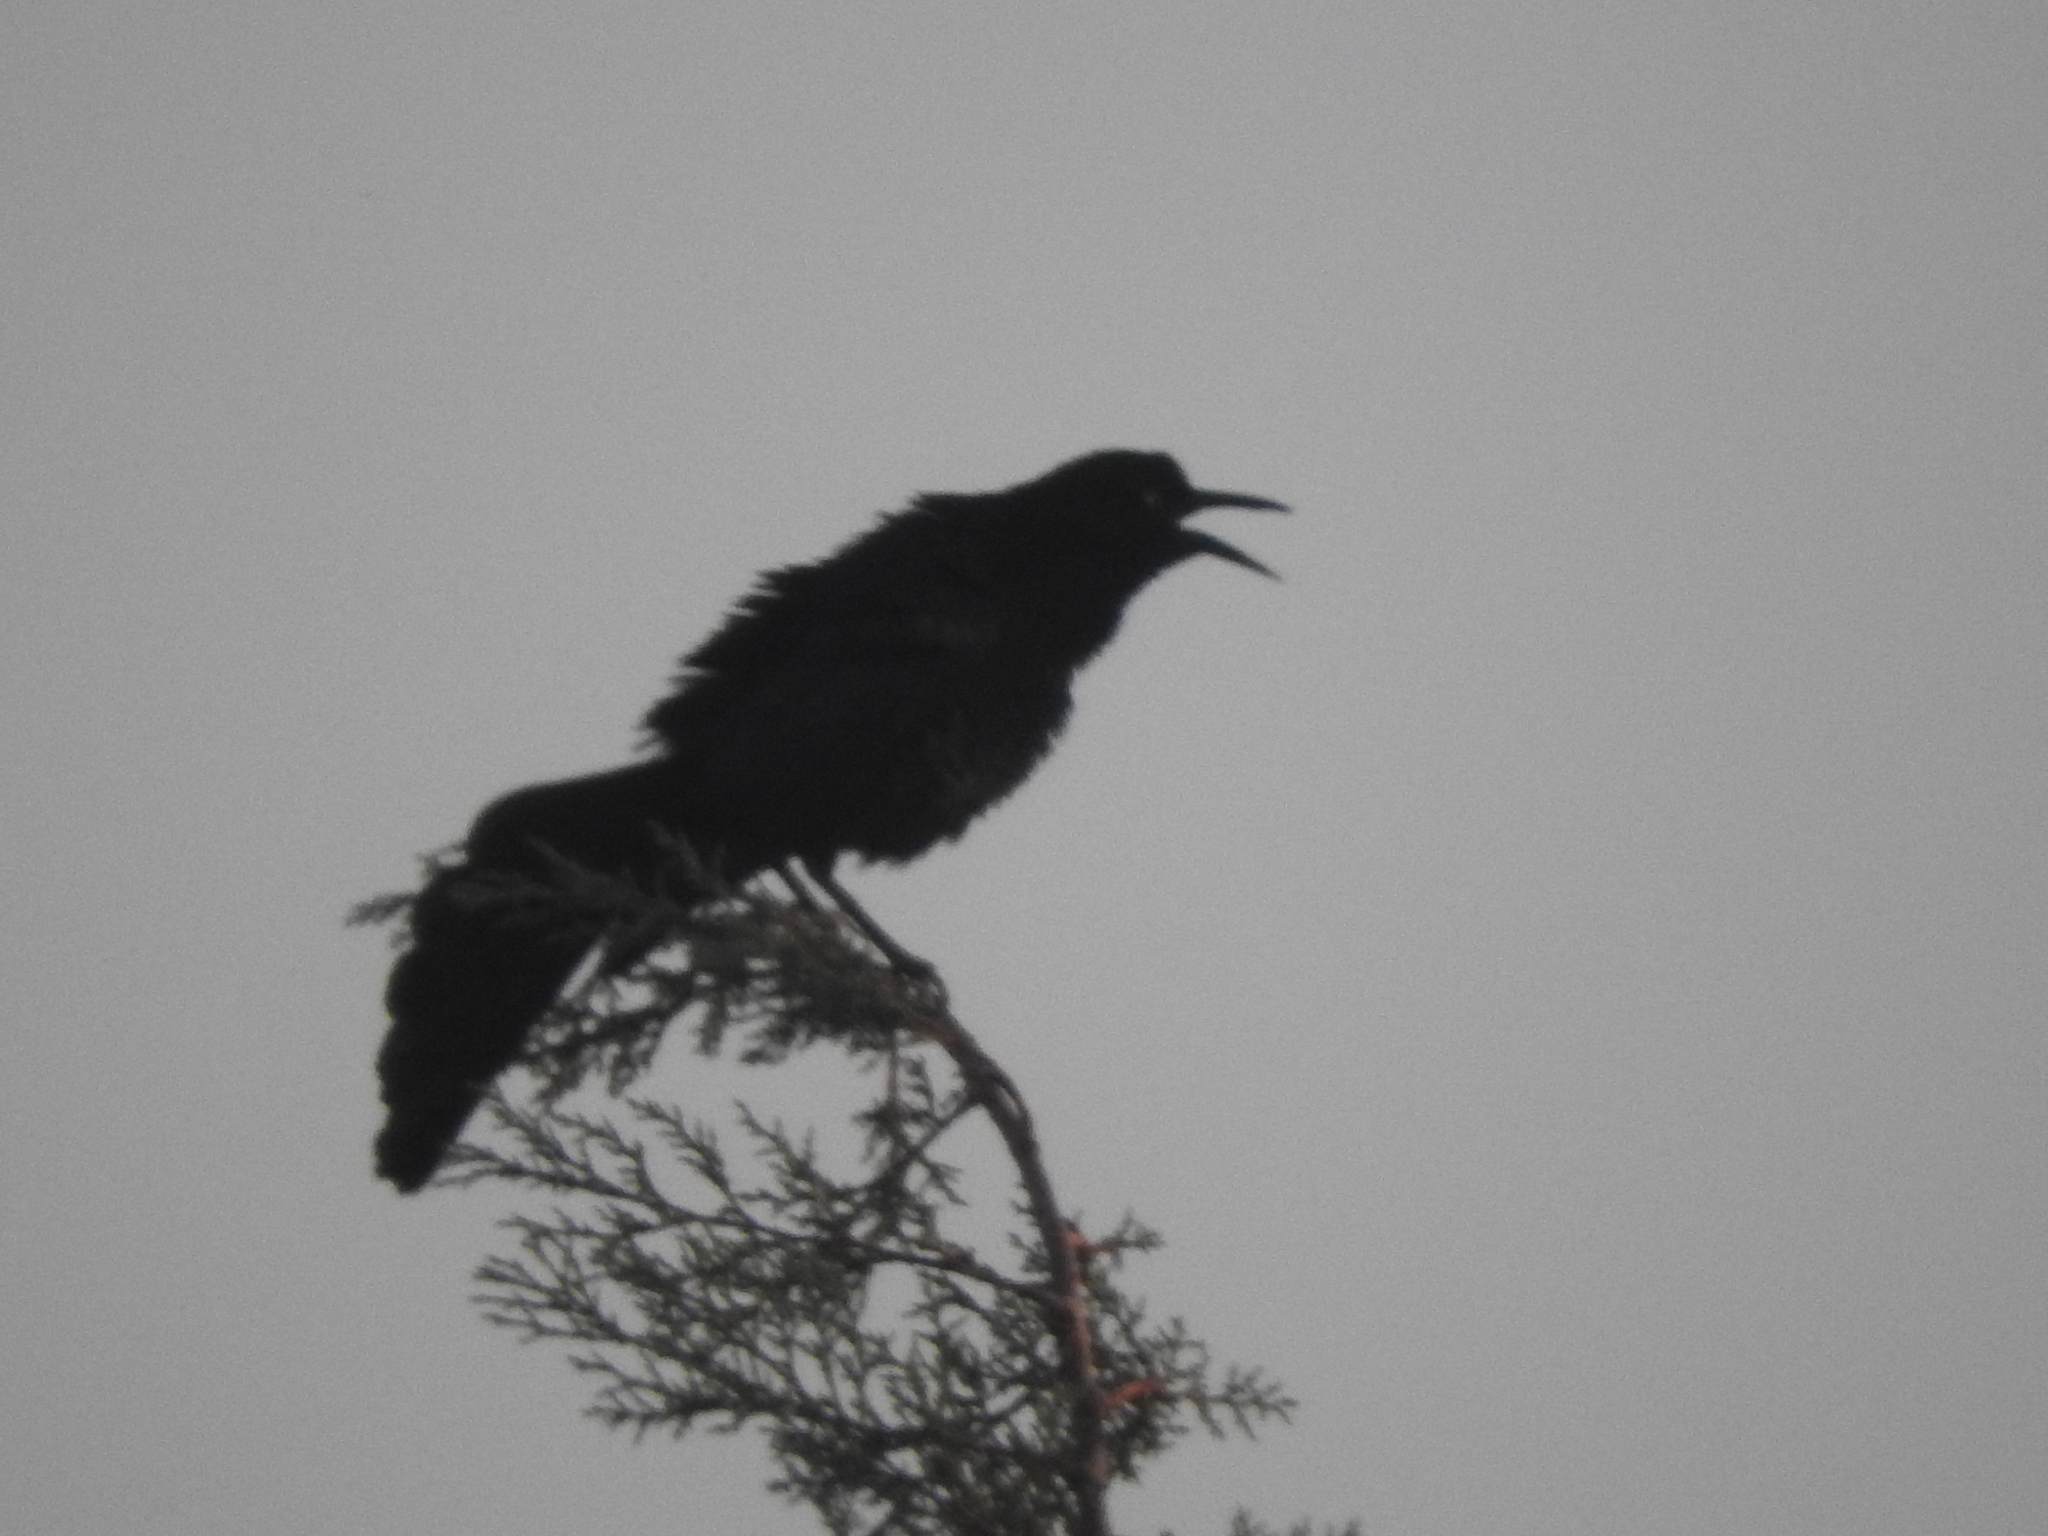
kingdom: Animalia
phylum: Chordata
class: Aves
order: Passeriformes
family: Icteridae
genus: Quiscalus
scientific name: Quiscalus mexicanus
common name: Great-tailed grackle
